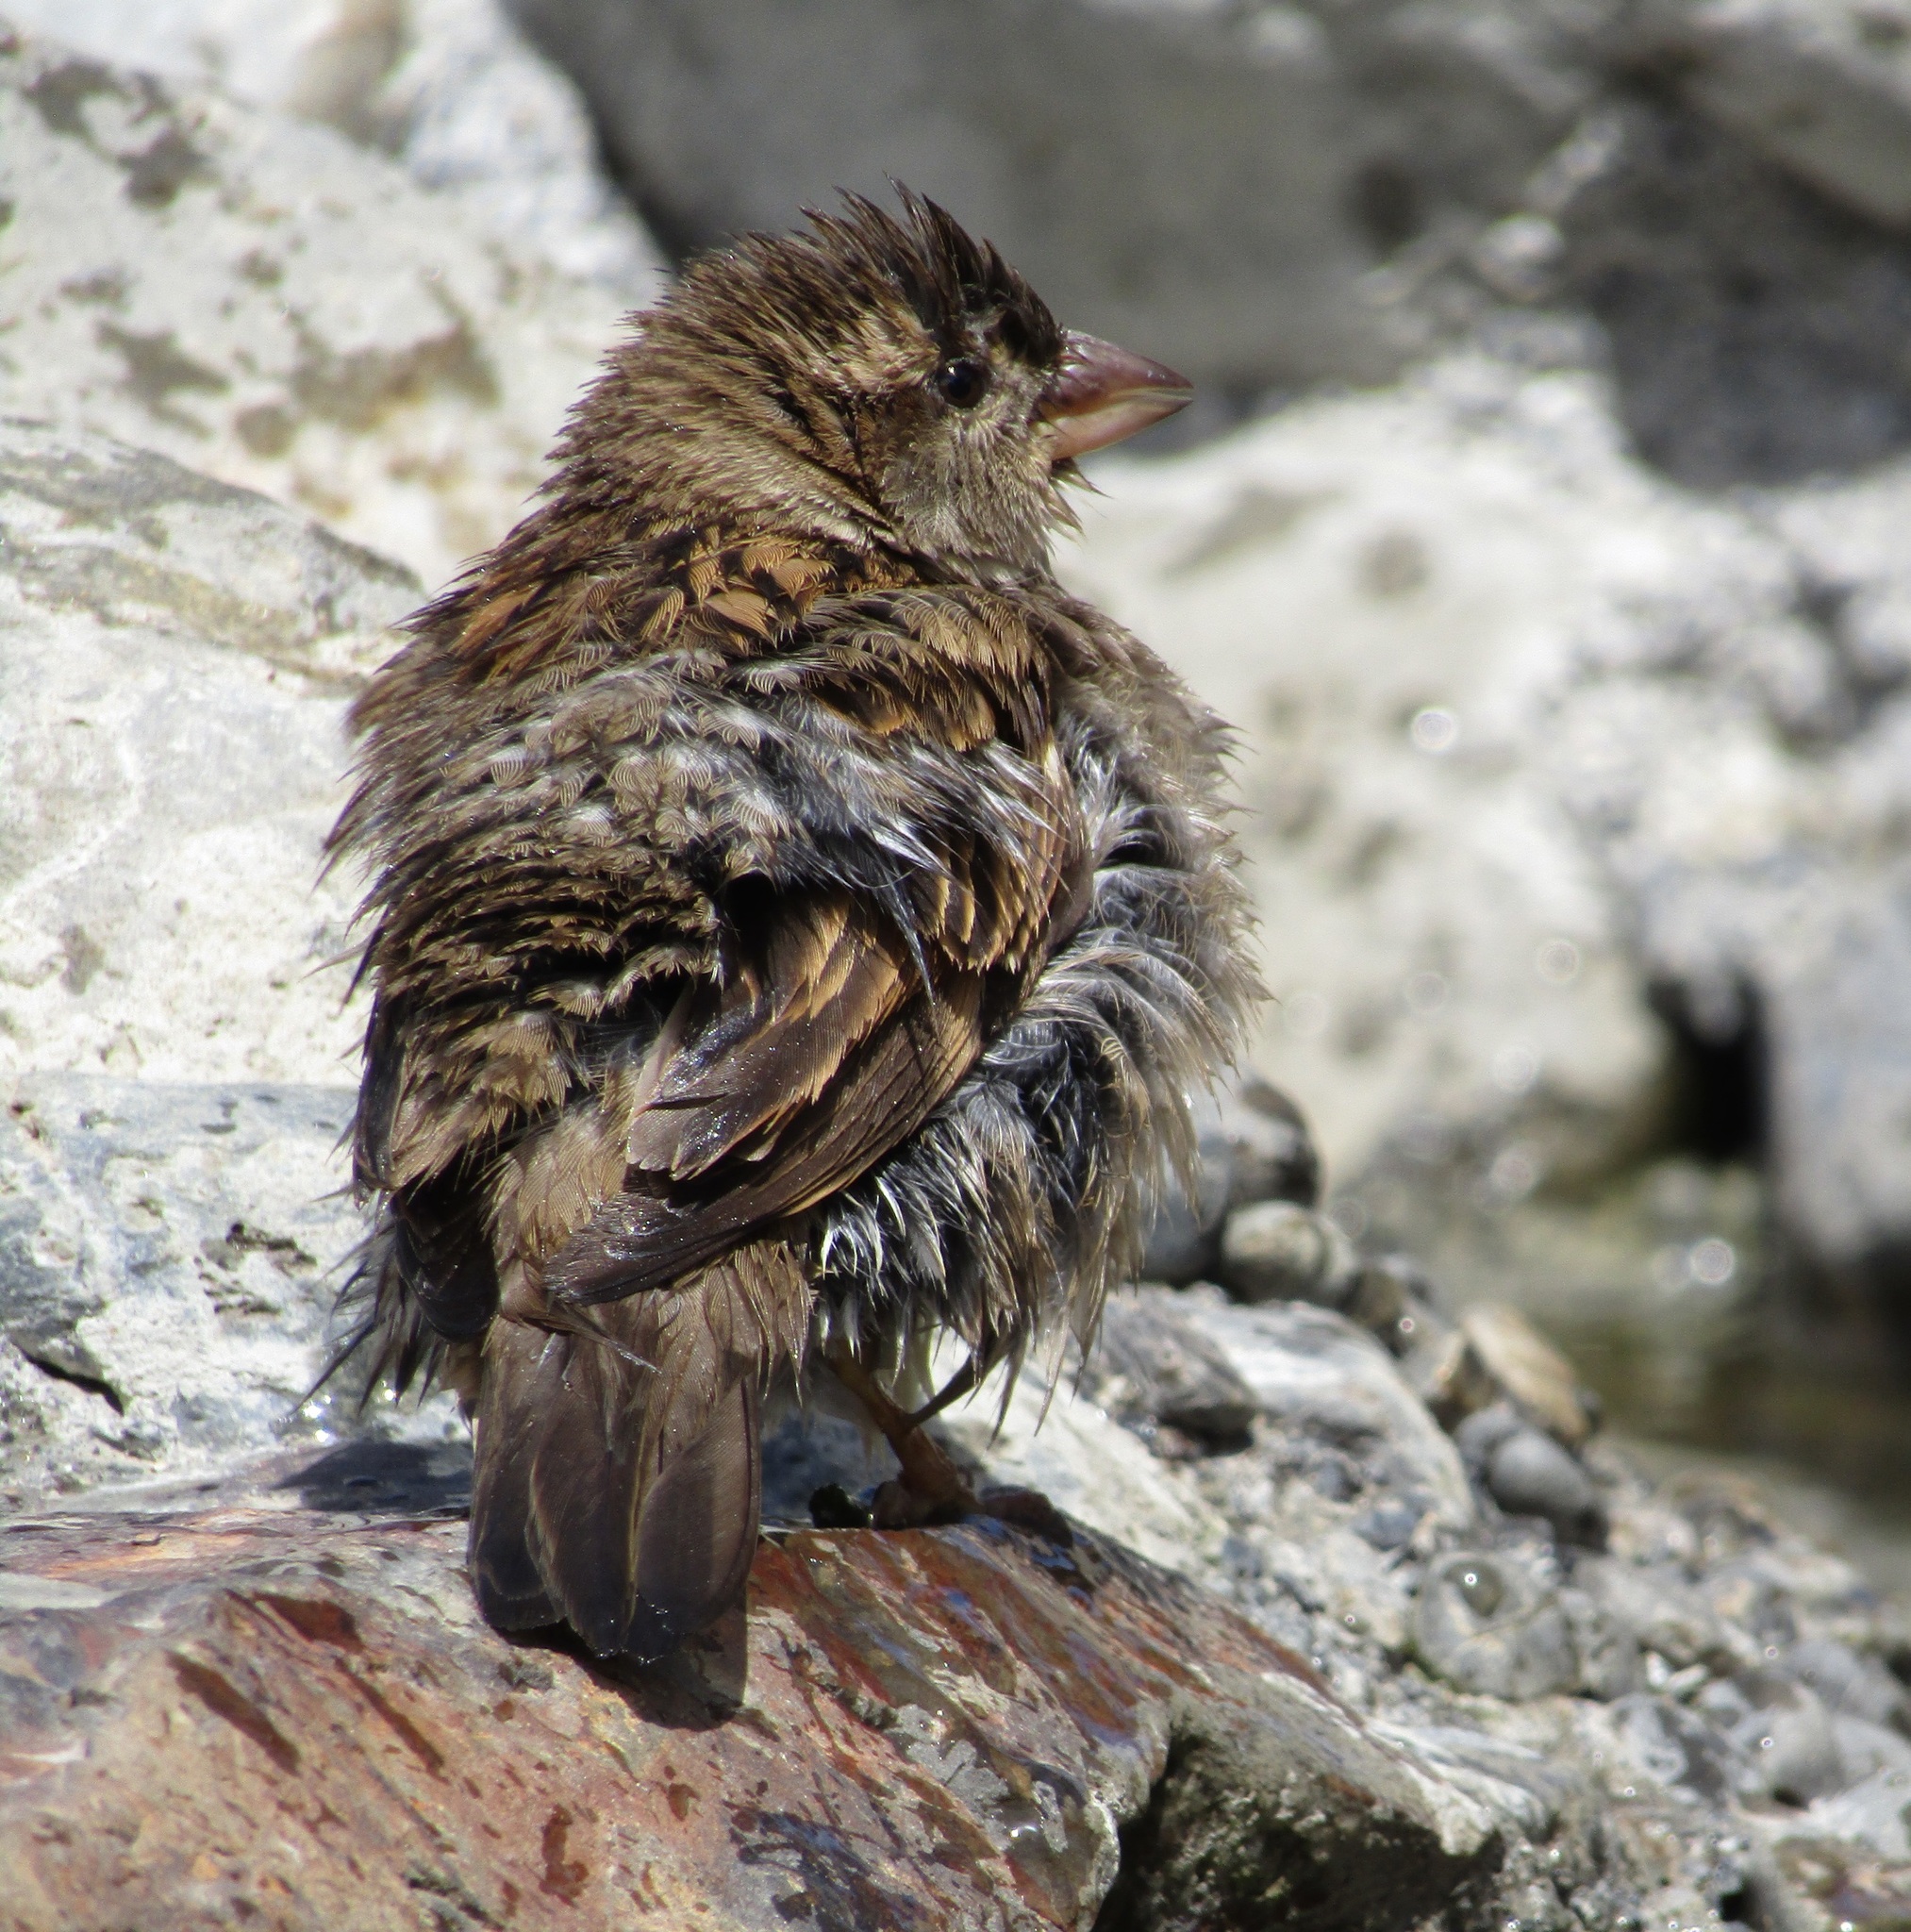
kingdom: Animalia
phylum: Chordata
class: Aves
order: Passeriformes
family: Passeridae
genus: Passer
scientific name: Passer domesticus
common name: House sparrow
